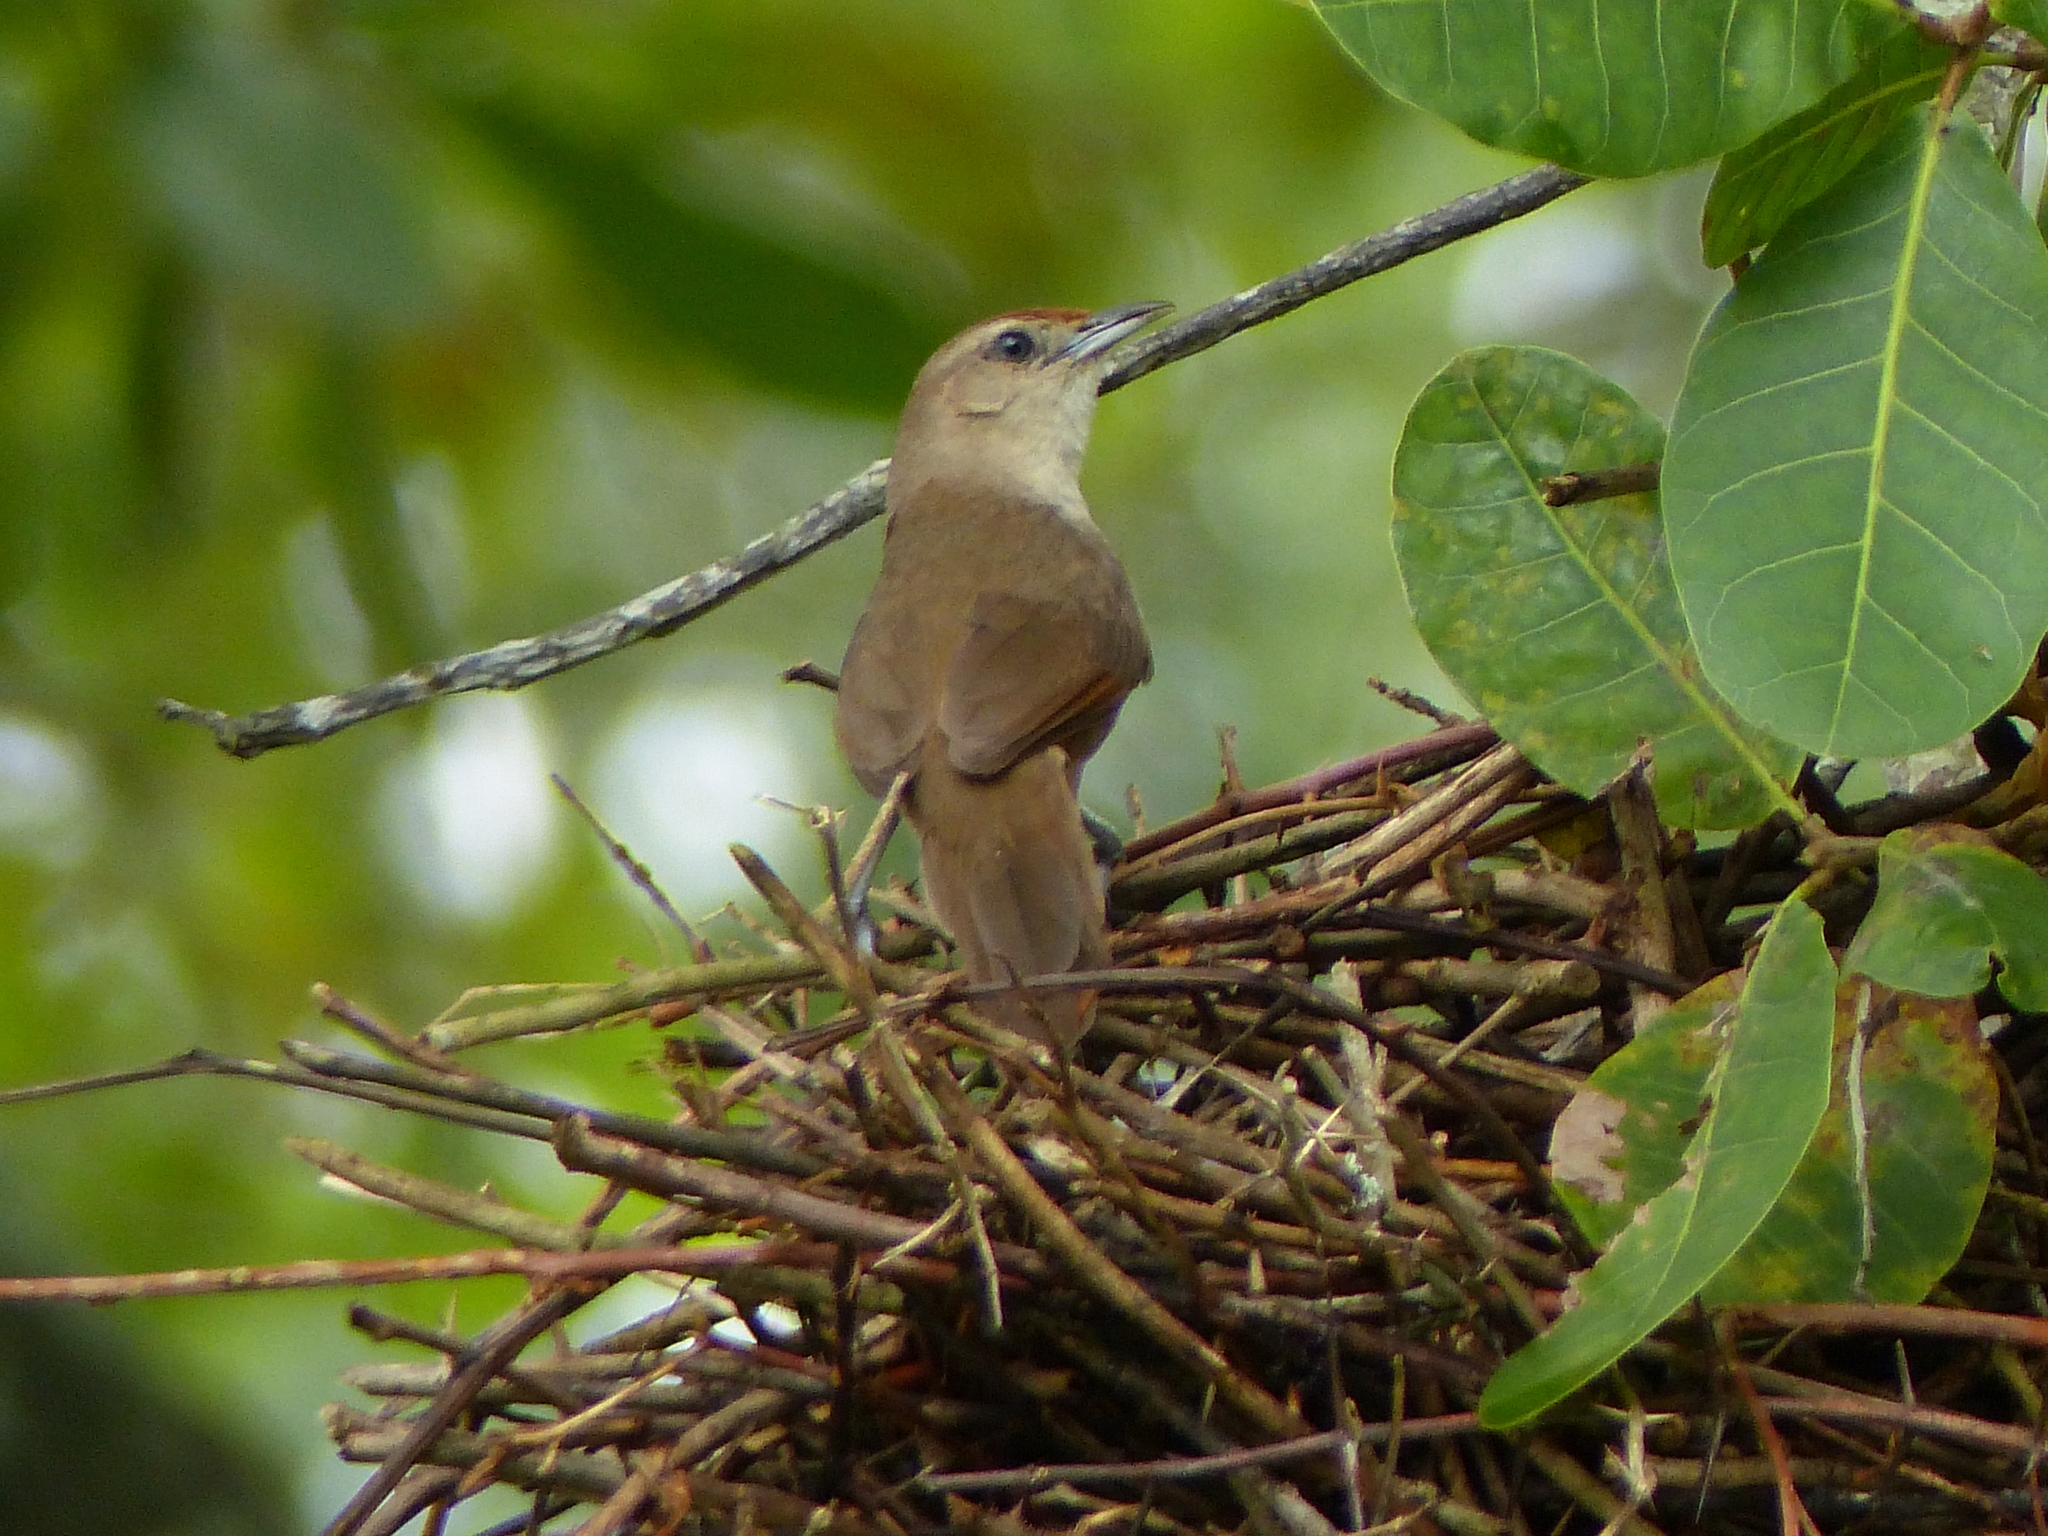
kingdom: Animalia
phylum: Chordata
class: Aves
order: Passeriformes
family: Furnariidae
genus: Phacellodomus
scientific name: Phacellodomus rufifrons
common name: Rufous-fronted thornbird
